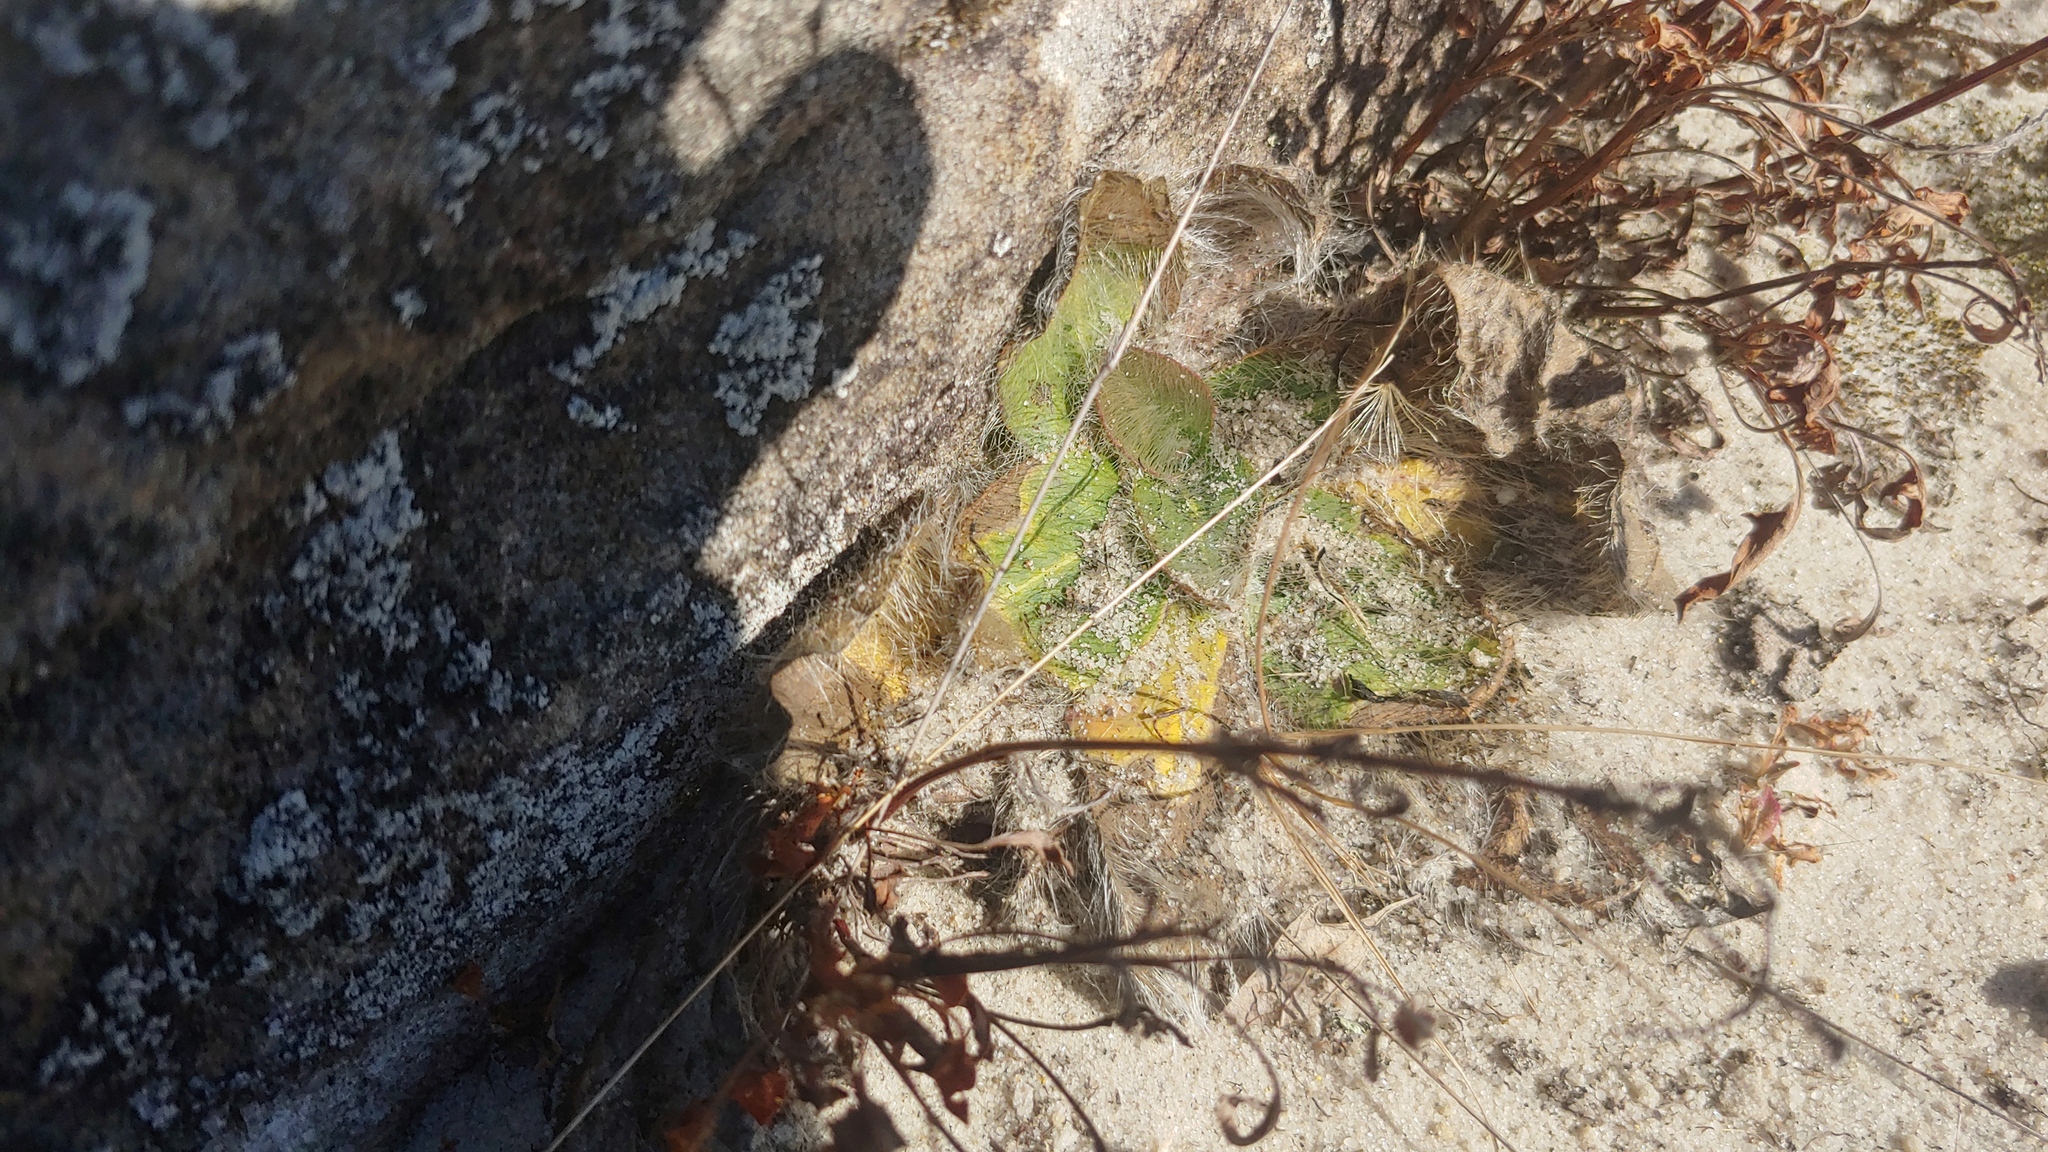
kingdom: Plantae
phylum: Tracheophyta
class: Magnoliopsida
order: Asterales
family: Asteraceae
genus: Hieracium
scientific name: Hieracium longipilum
